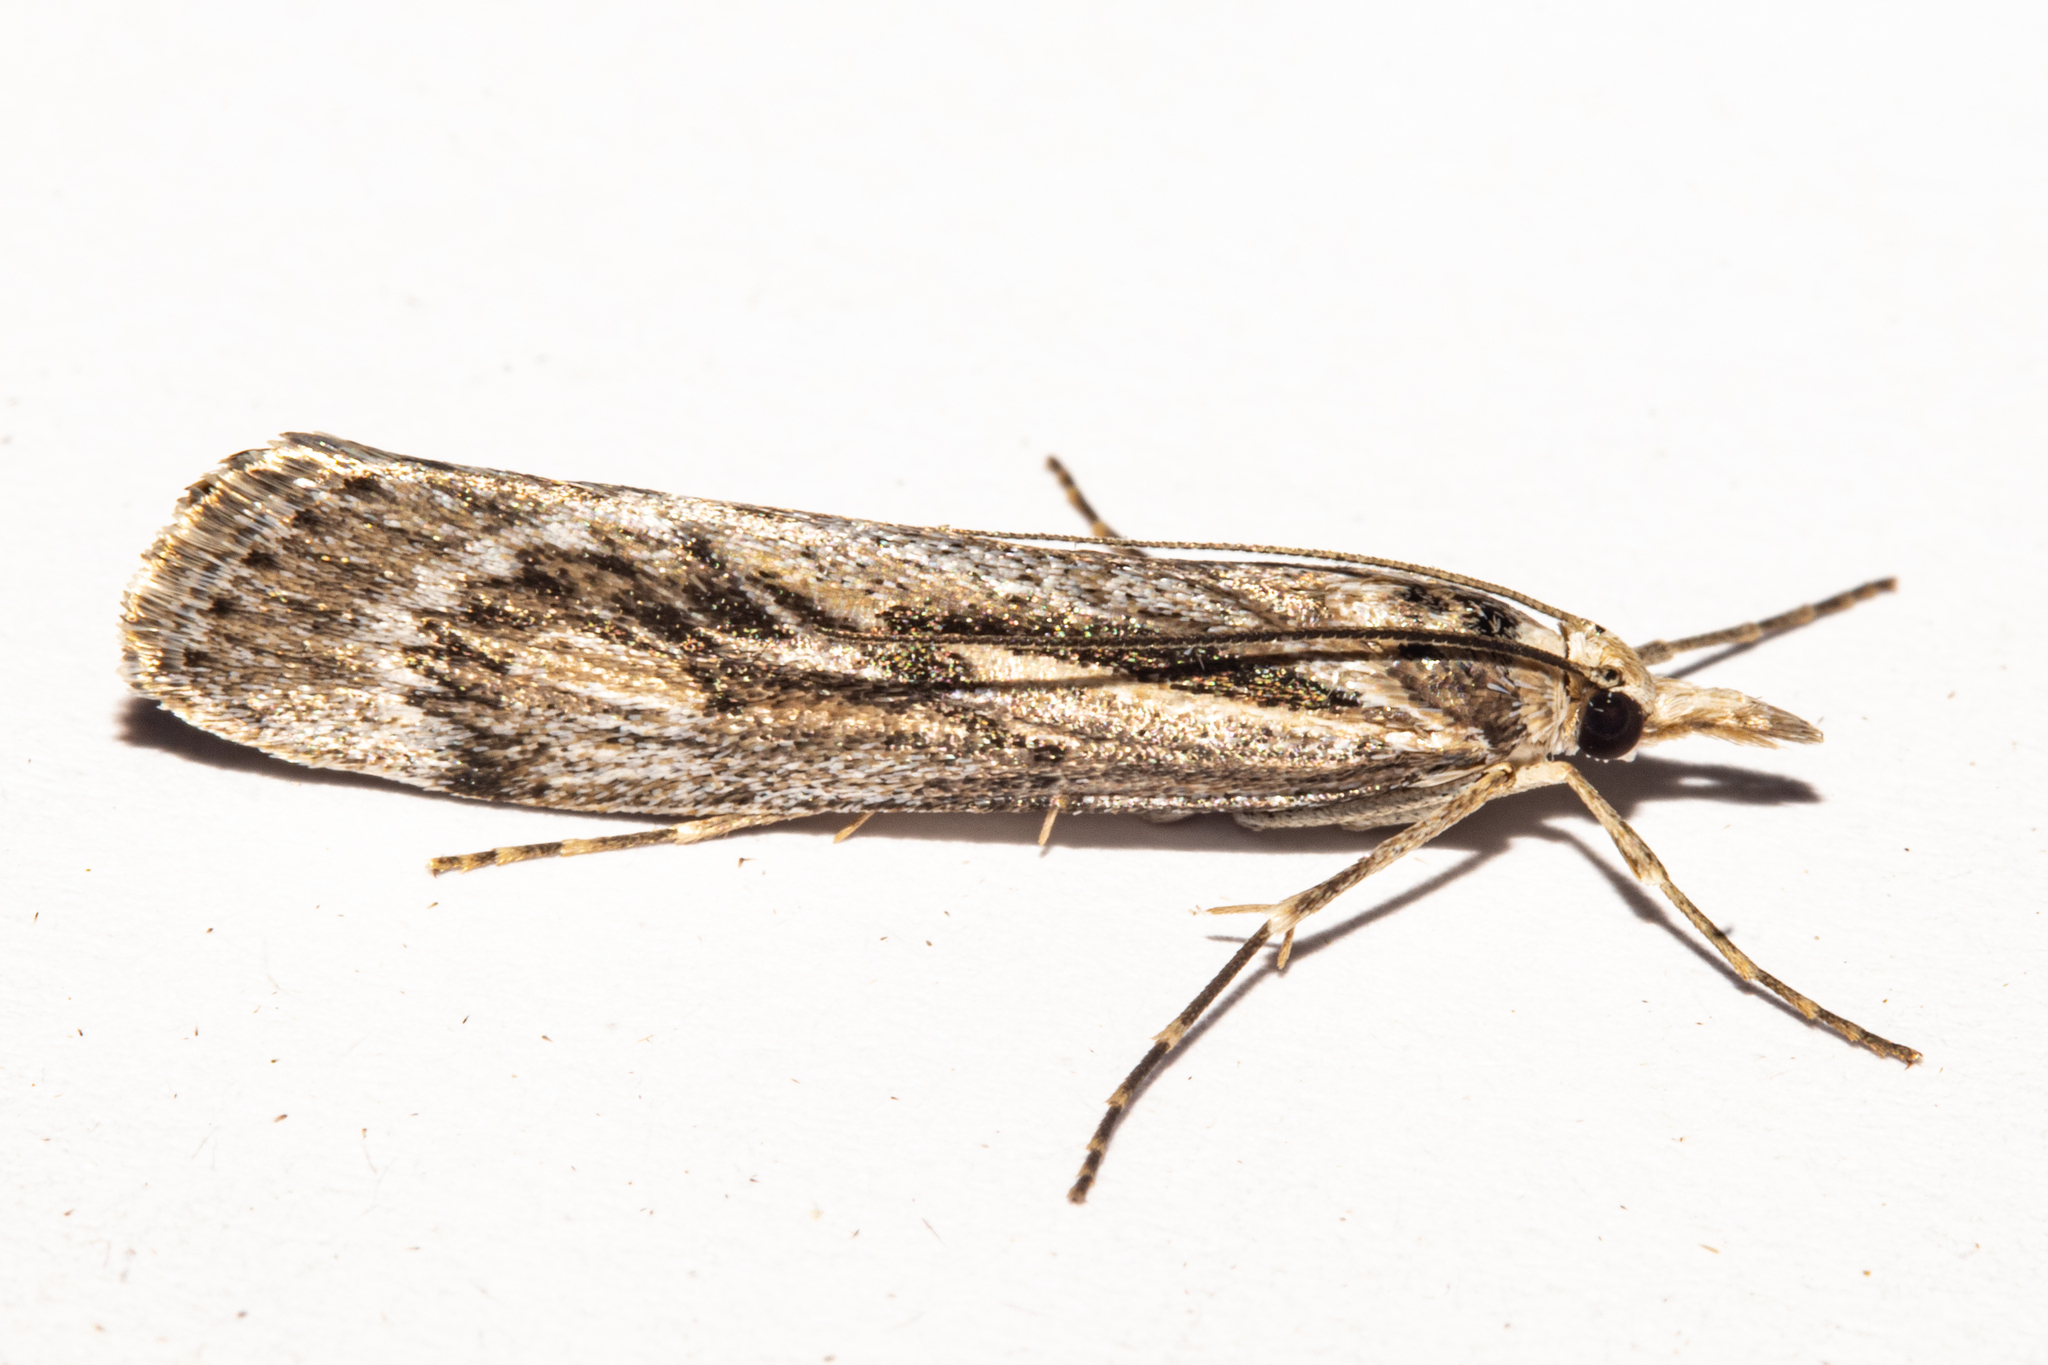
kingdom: Animalia
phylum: Arthropoda
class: Insecta
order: Lepidoptera
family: Crambidae
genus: Tawhitia
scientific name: Tawhitia pentadactylus
